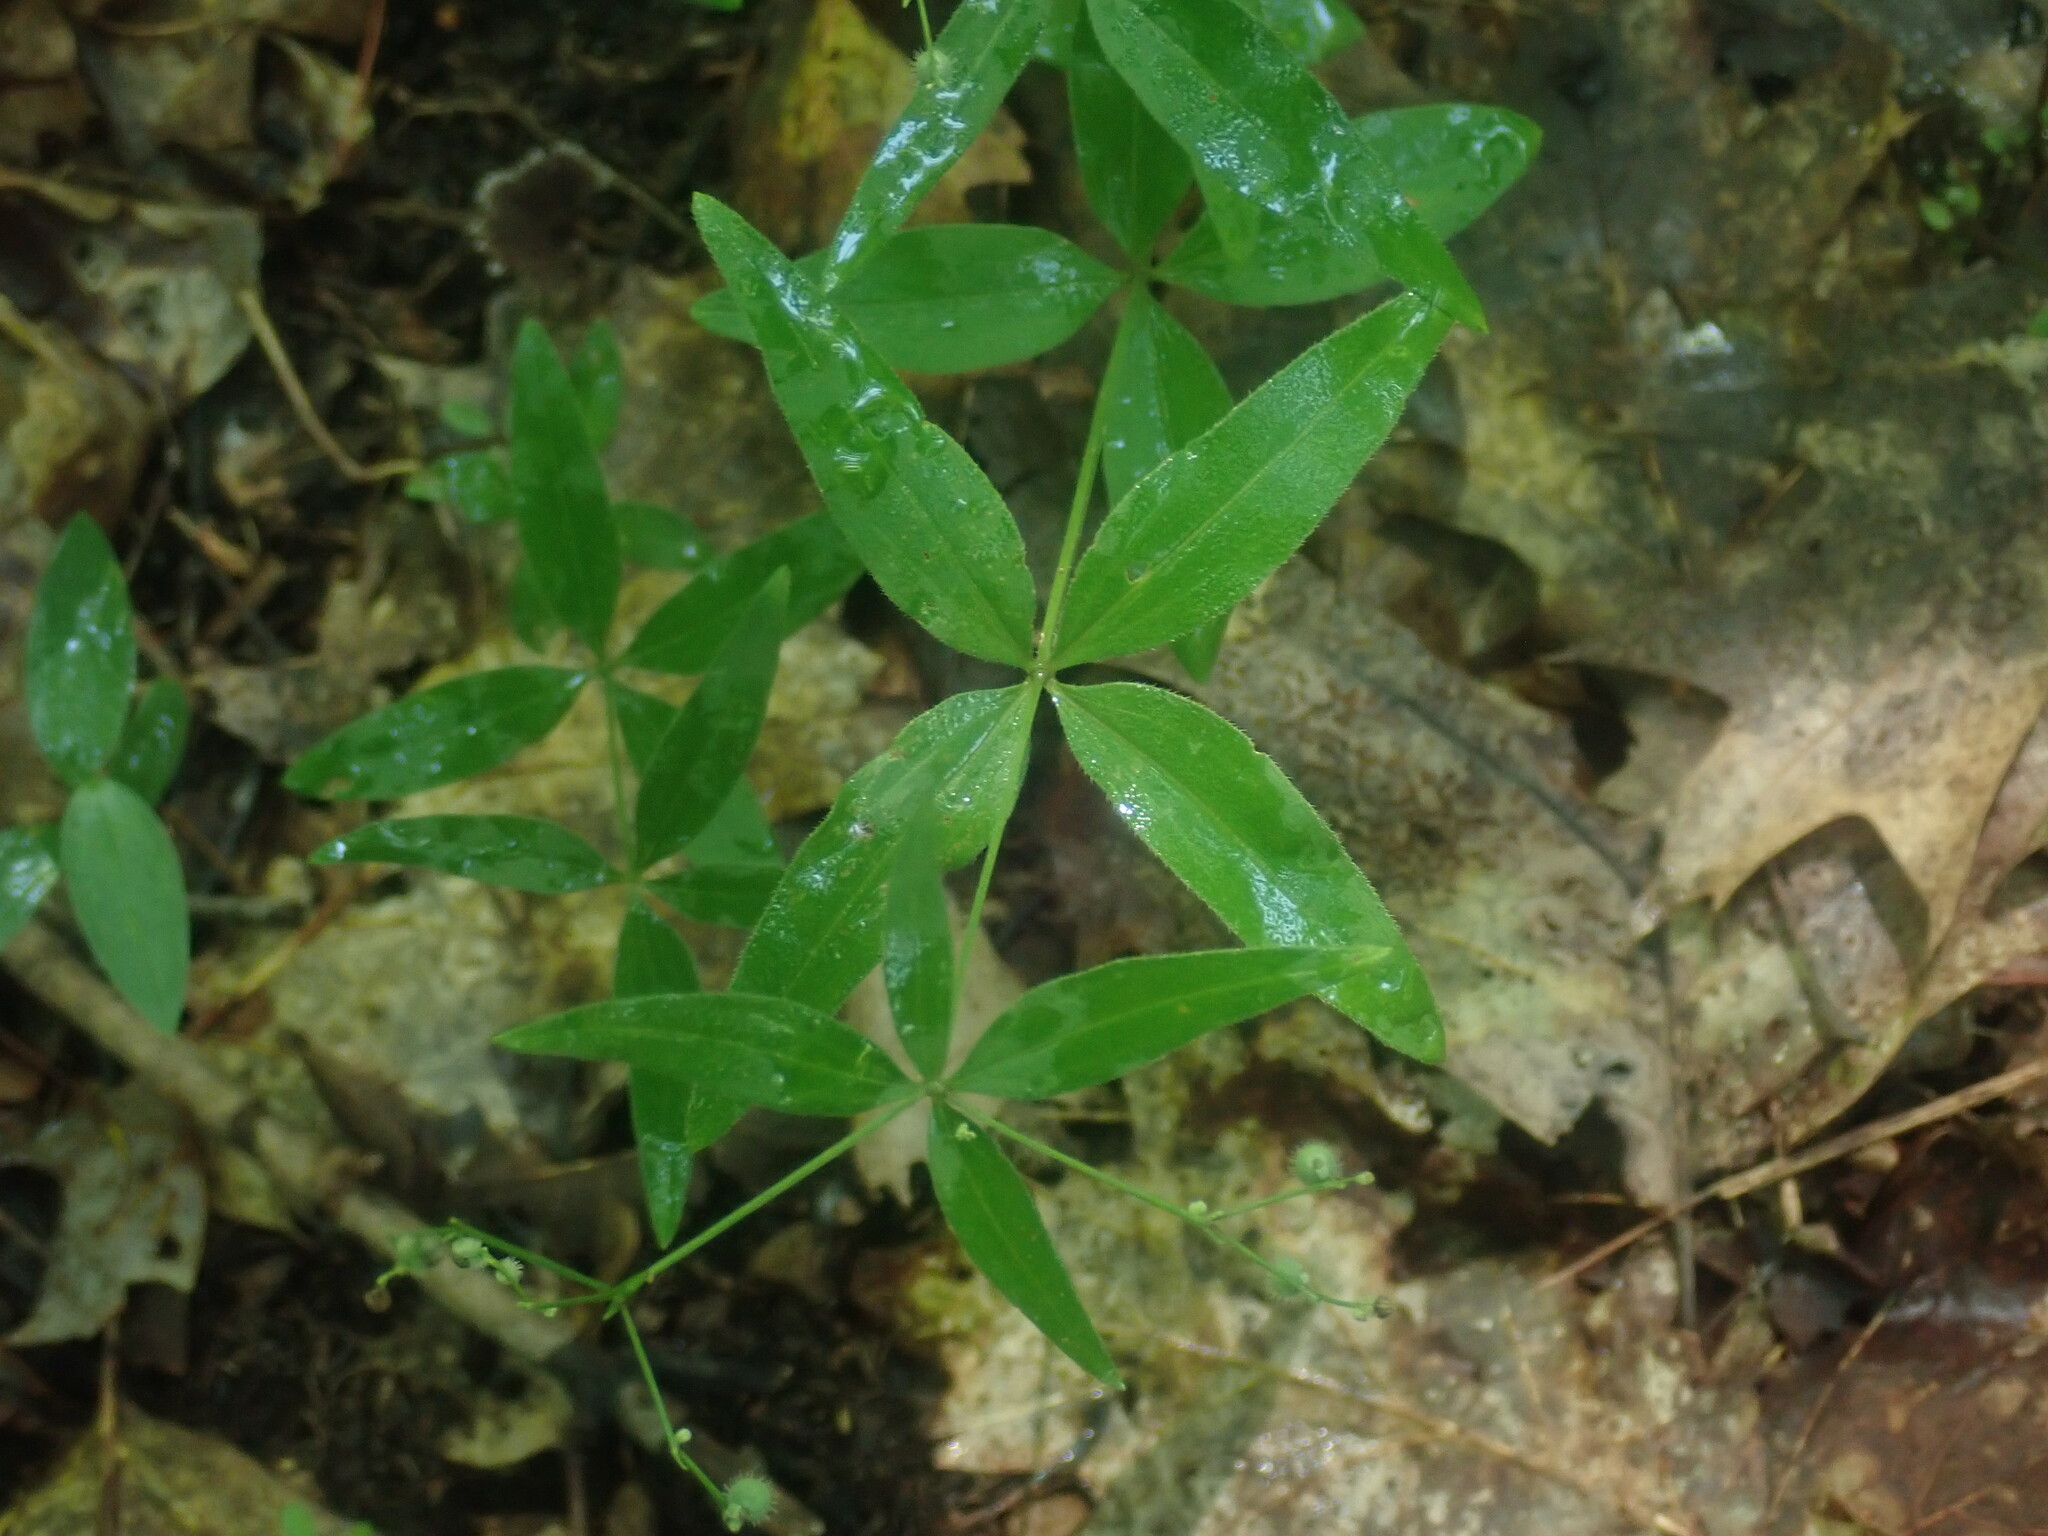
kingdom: Plantae
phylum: Tracheophyta
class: Magnoliopsida
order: Gentianales
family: Rubiaceae
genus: Galium
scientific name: Galium lanceolatum
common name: Lance-leaved wild licorice
